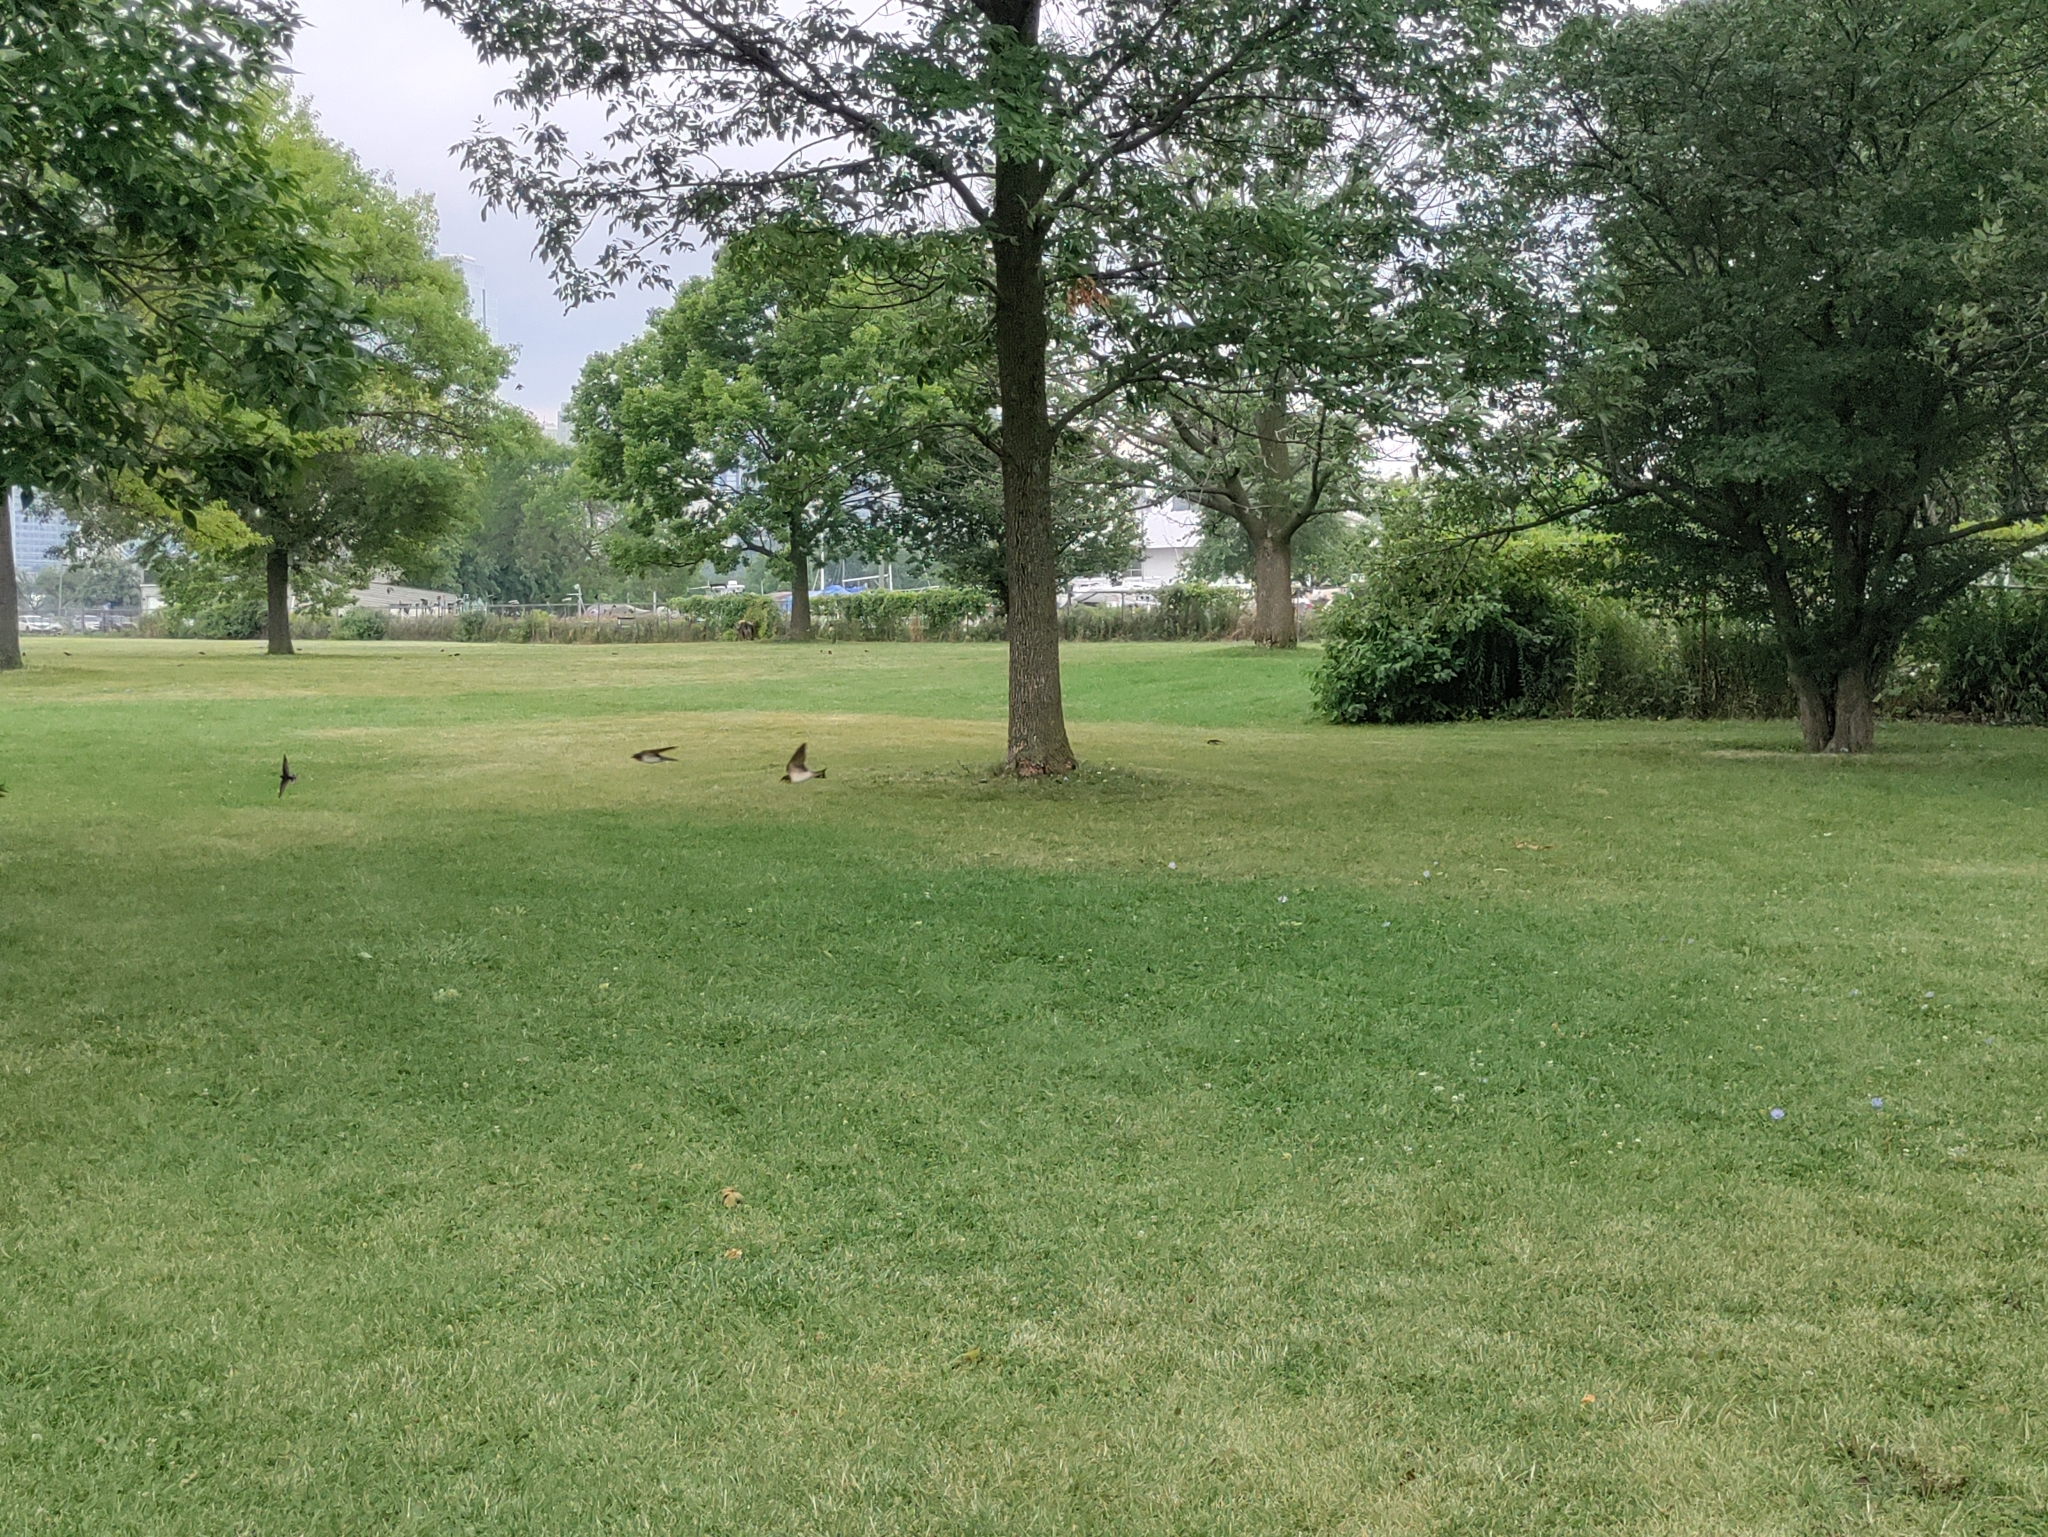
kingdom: Animalia
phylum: Chordata
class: Aves
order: Passeriformes
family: Hirundinidae
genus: Hirundo
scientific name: Hirundo rustica
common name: Barn swallow
